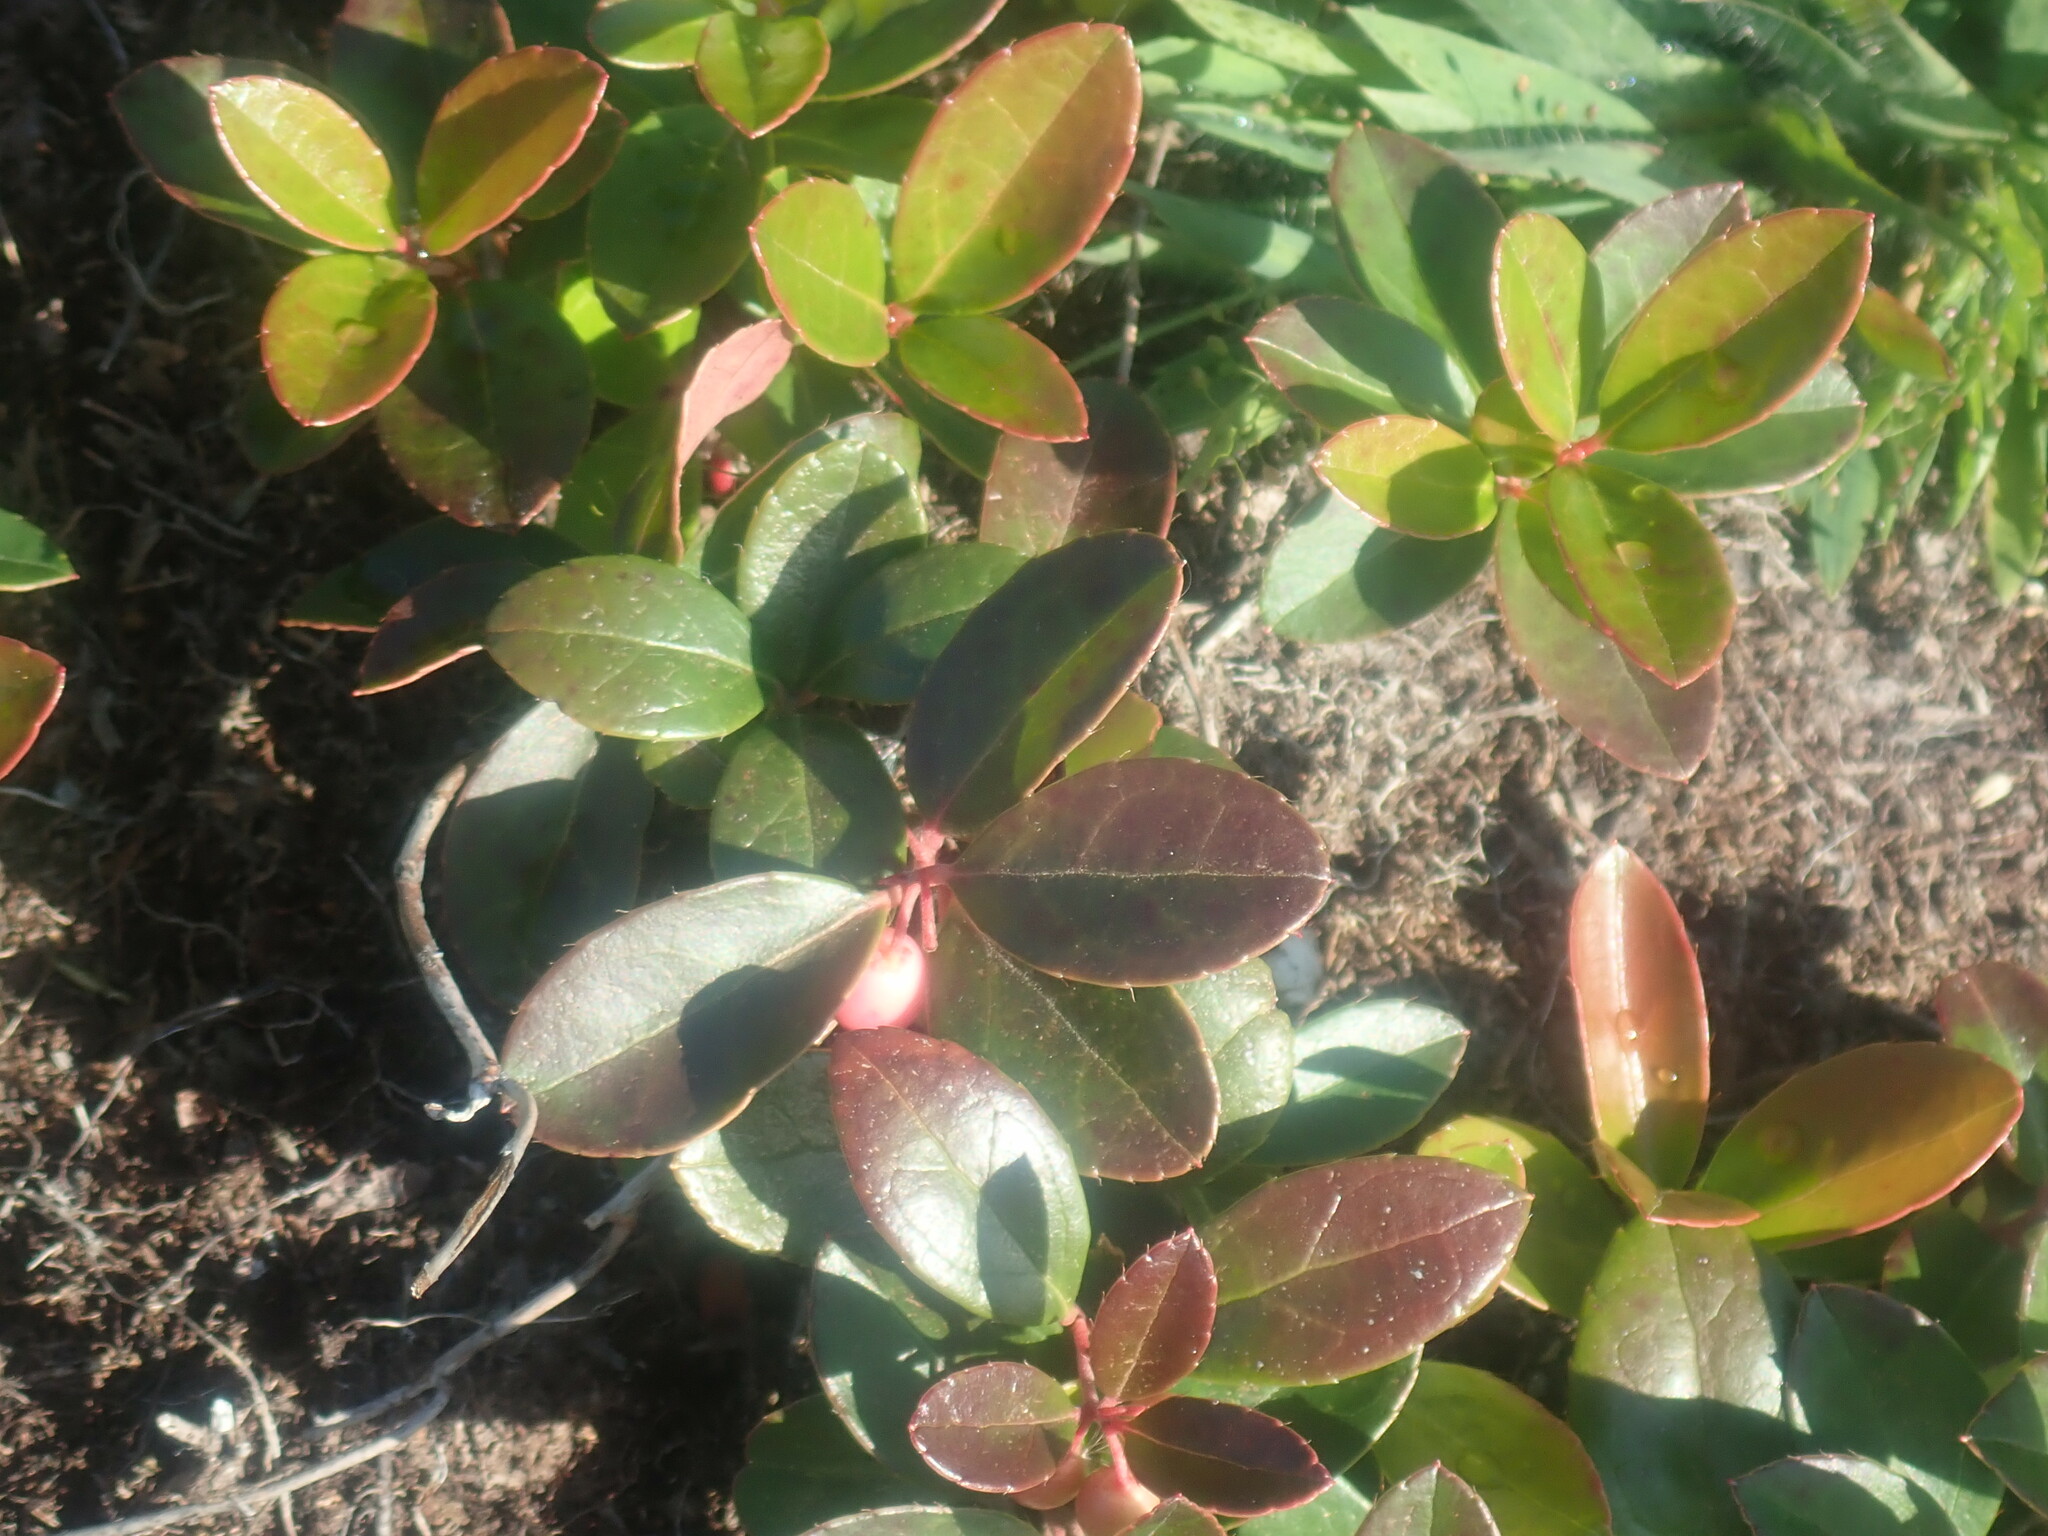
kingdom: Plantae
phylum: Tracheophyta
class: Magnoliopsida
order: Ericales
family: Ericaceae
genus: Gaultheria
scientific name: Gaultheria procumbens
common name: Checkerberry
